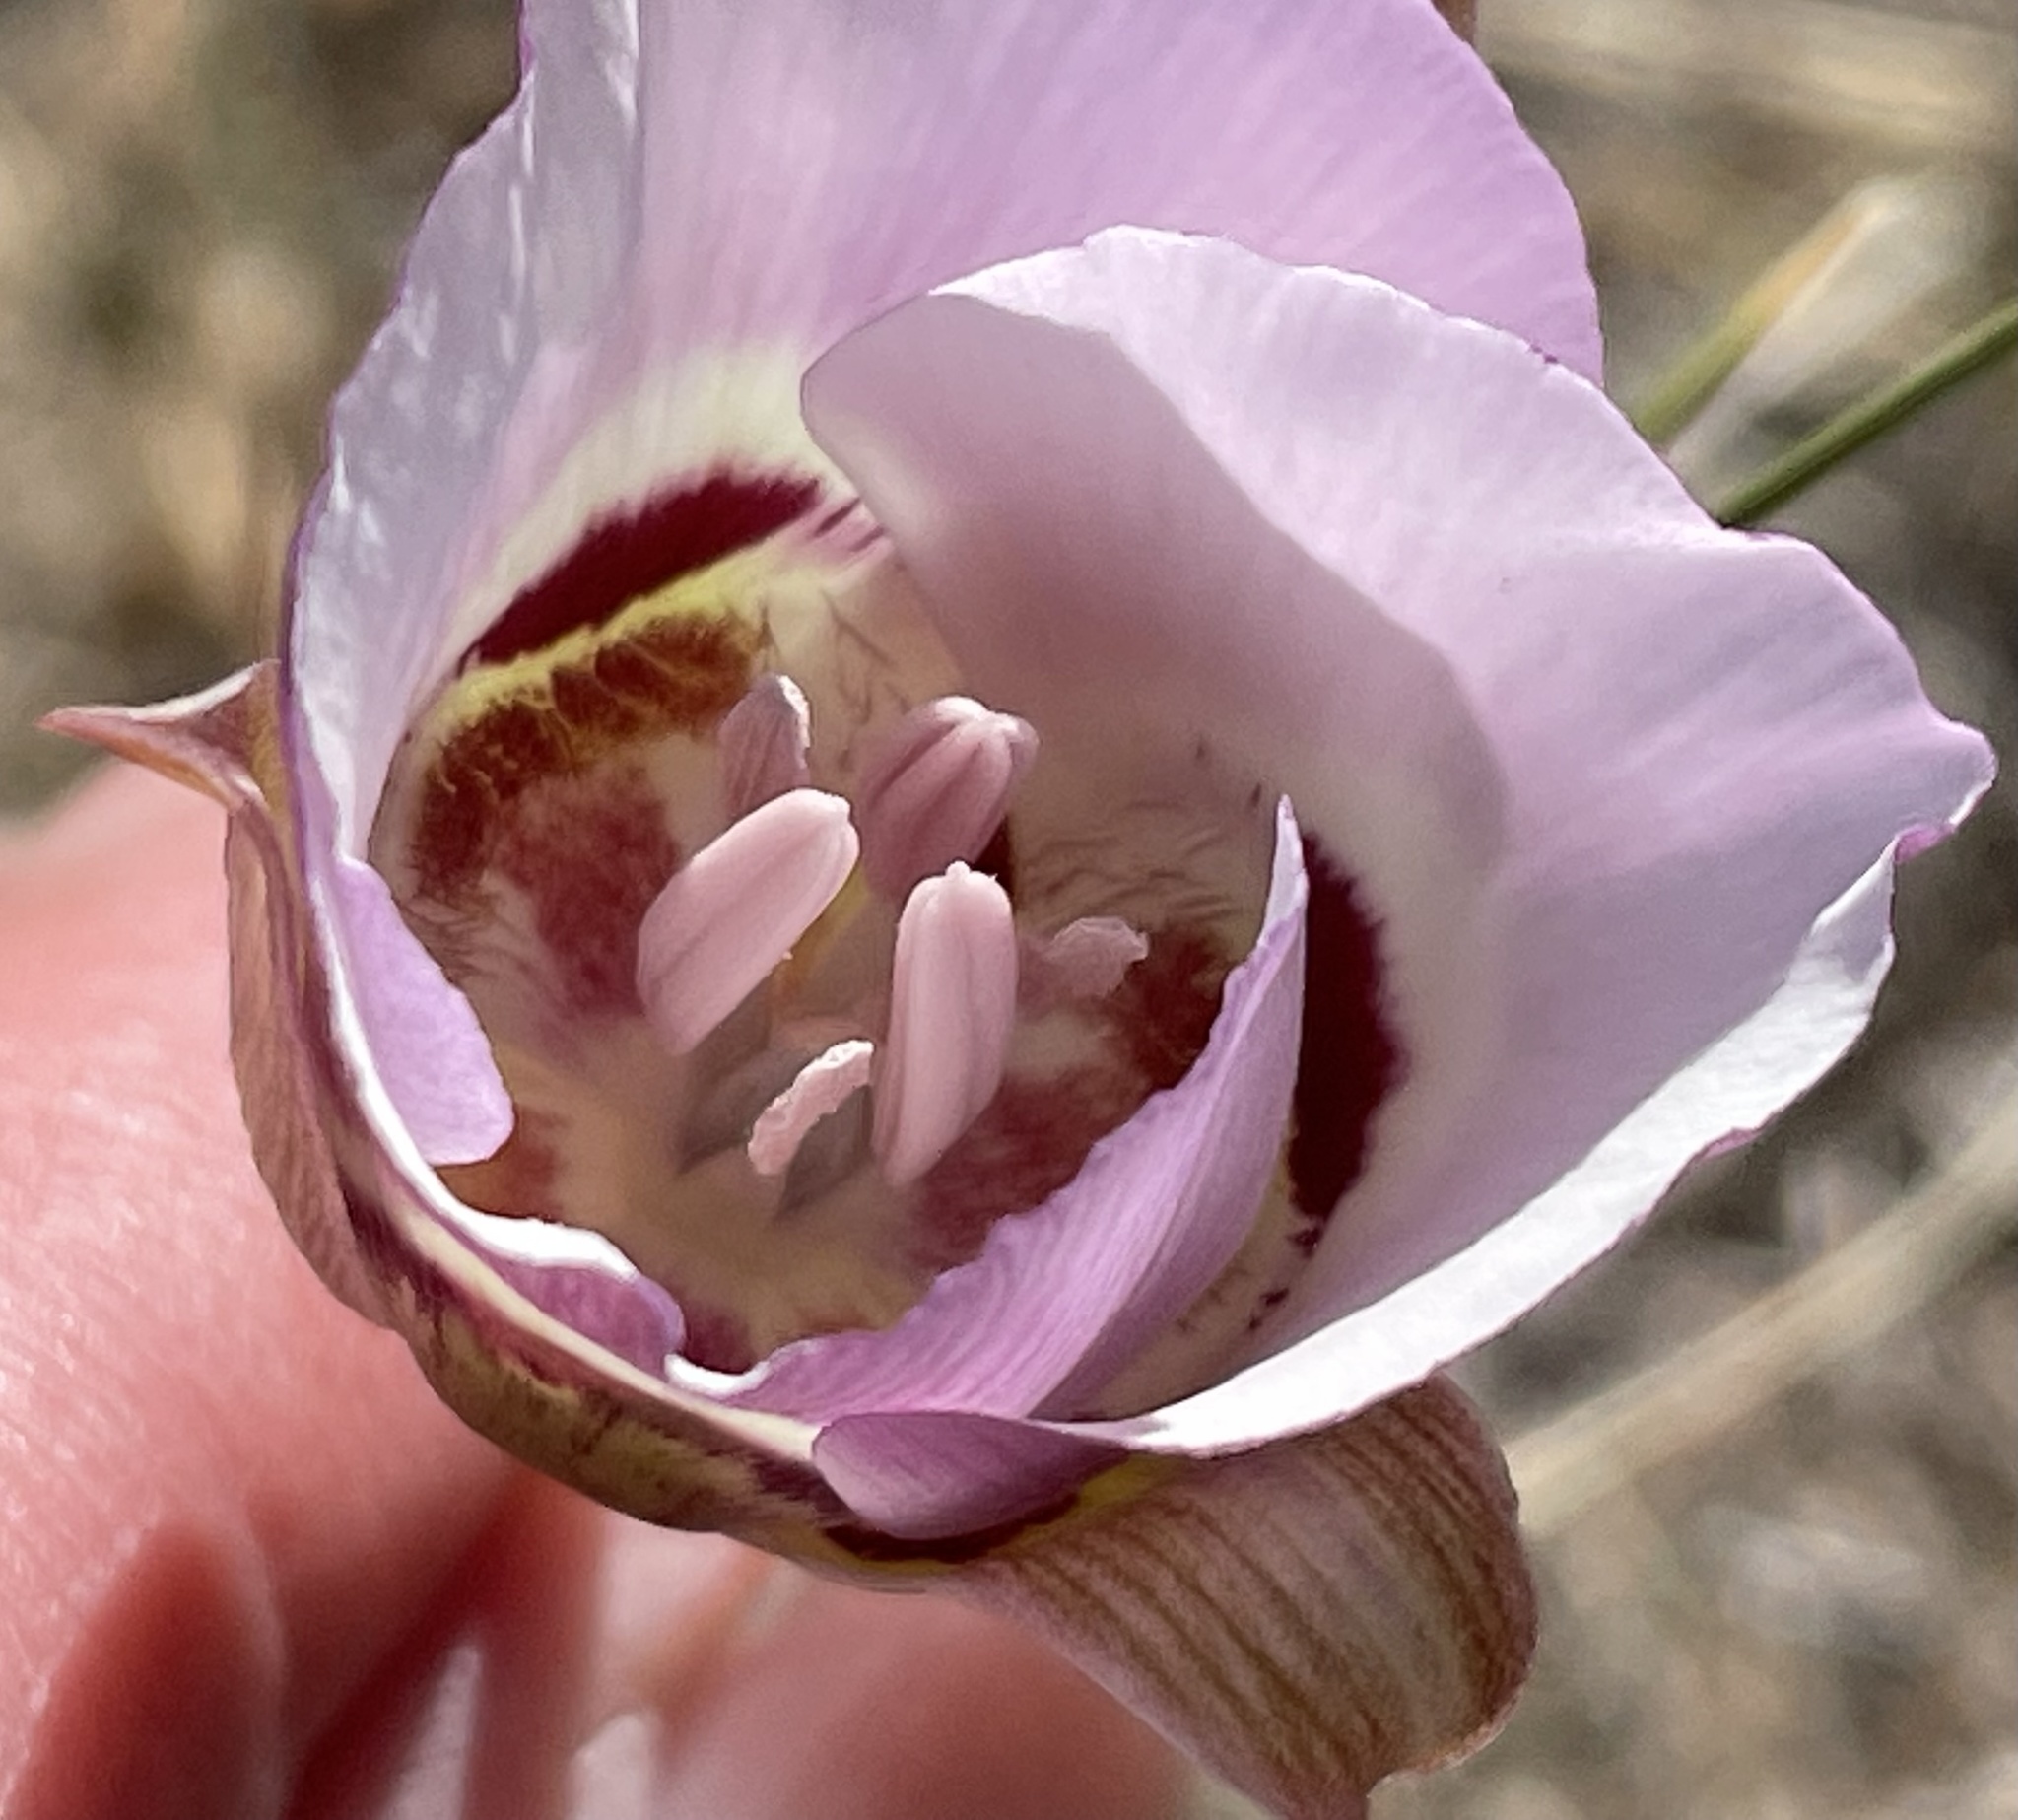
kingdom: Plantae
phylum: Tracheophyta
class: Liliopsida
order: Liliales
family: Liliaceae
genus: Calochortus
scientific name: Calochortus argillosus
